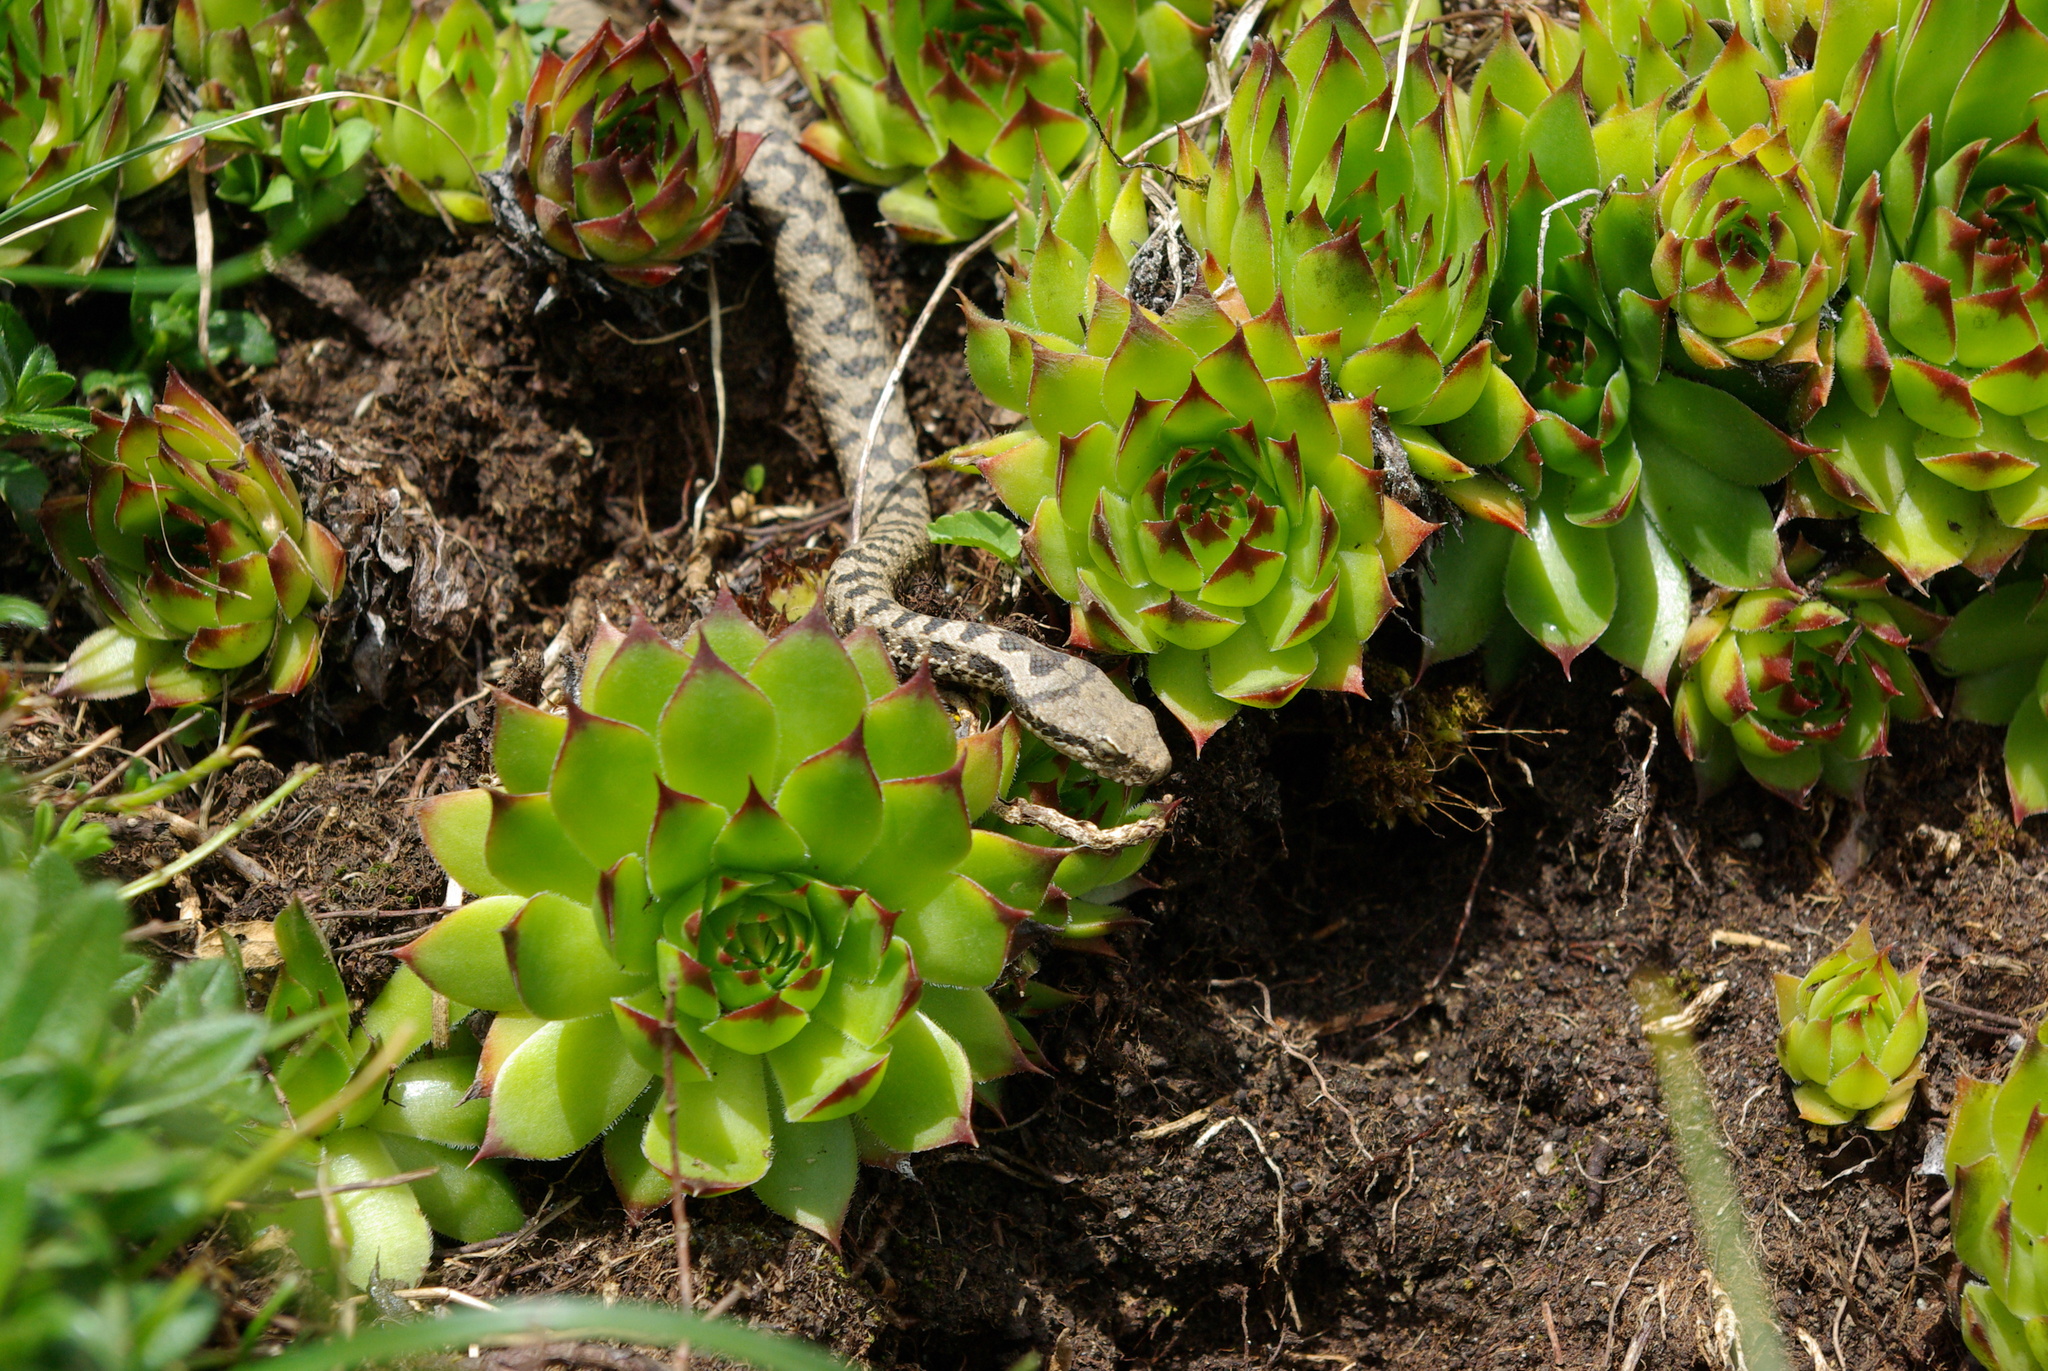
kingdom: Animalia
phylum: Chordata
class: Squamata
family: Viperidae
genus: Vipera
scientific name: Vipera aspis
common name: Asp viper
